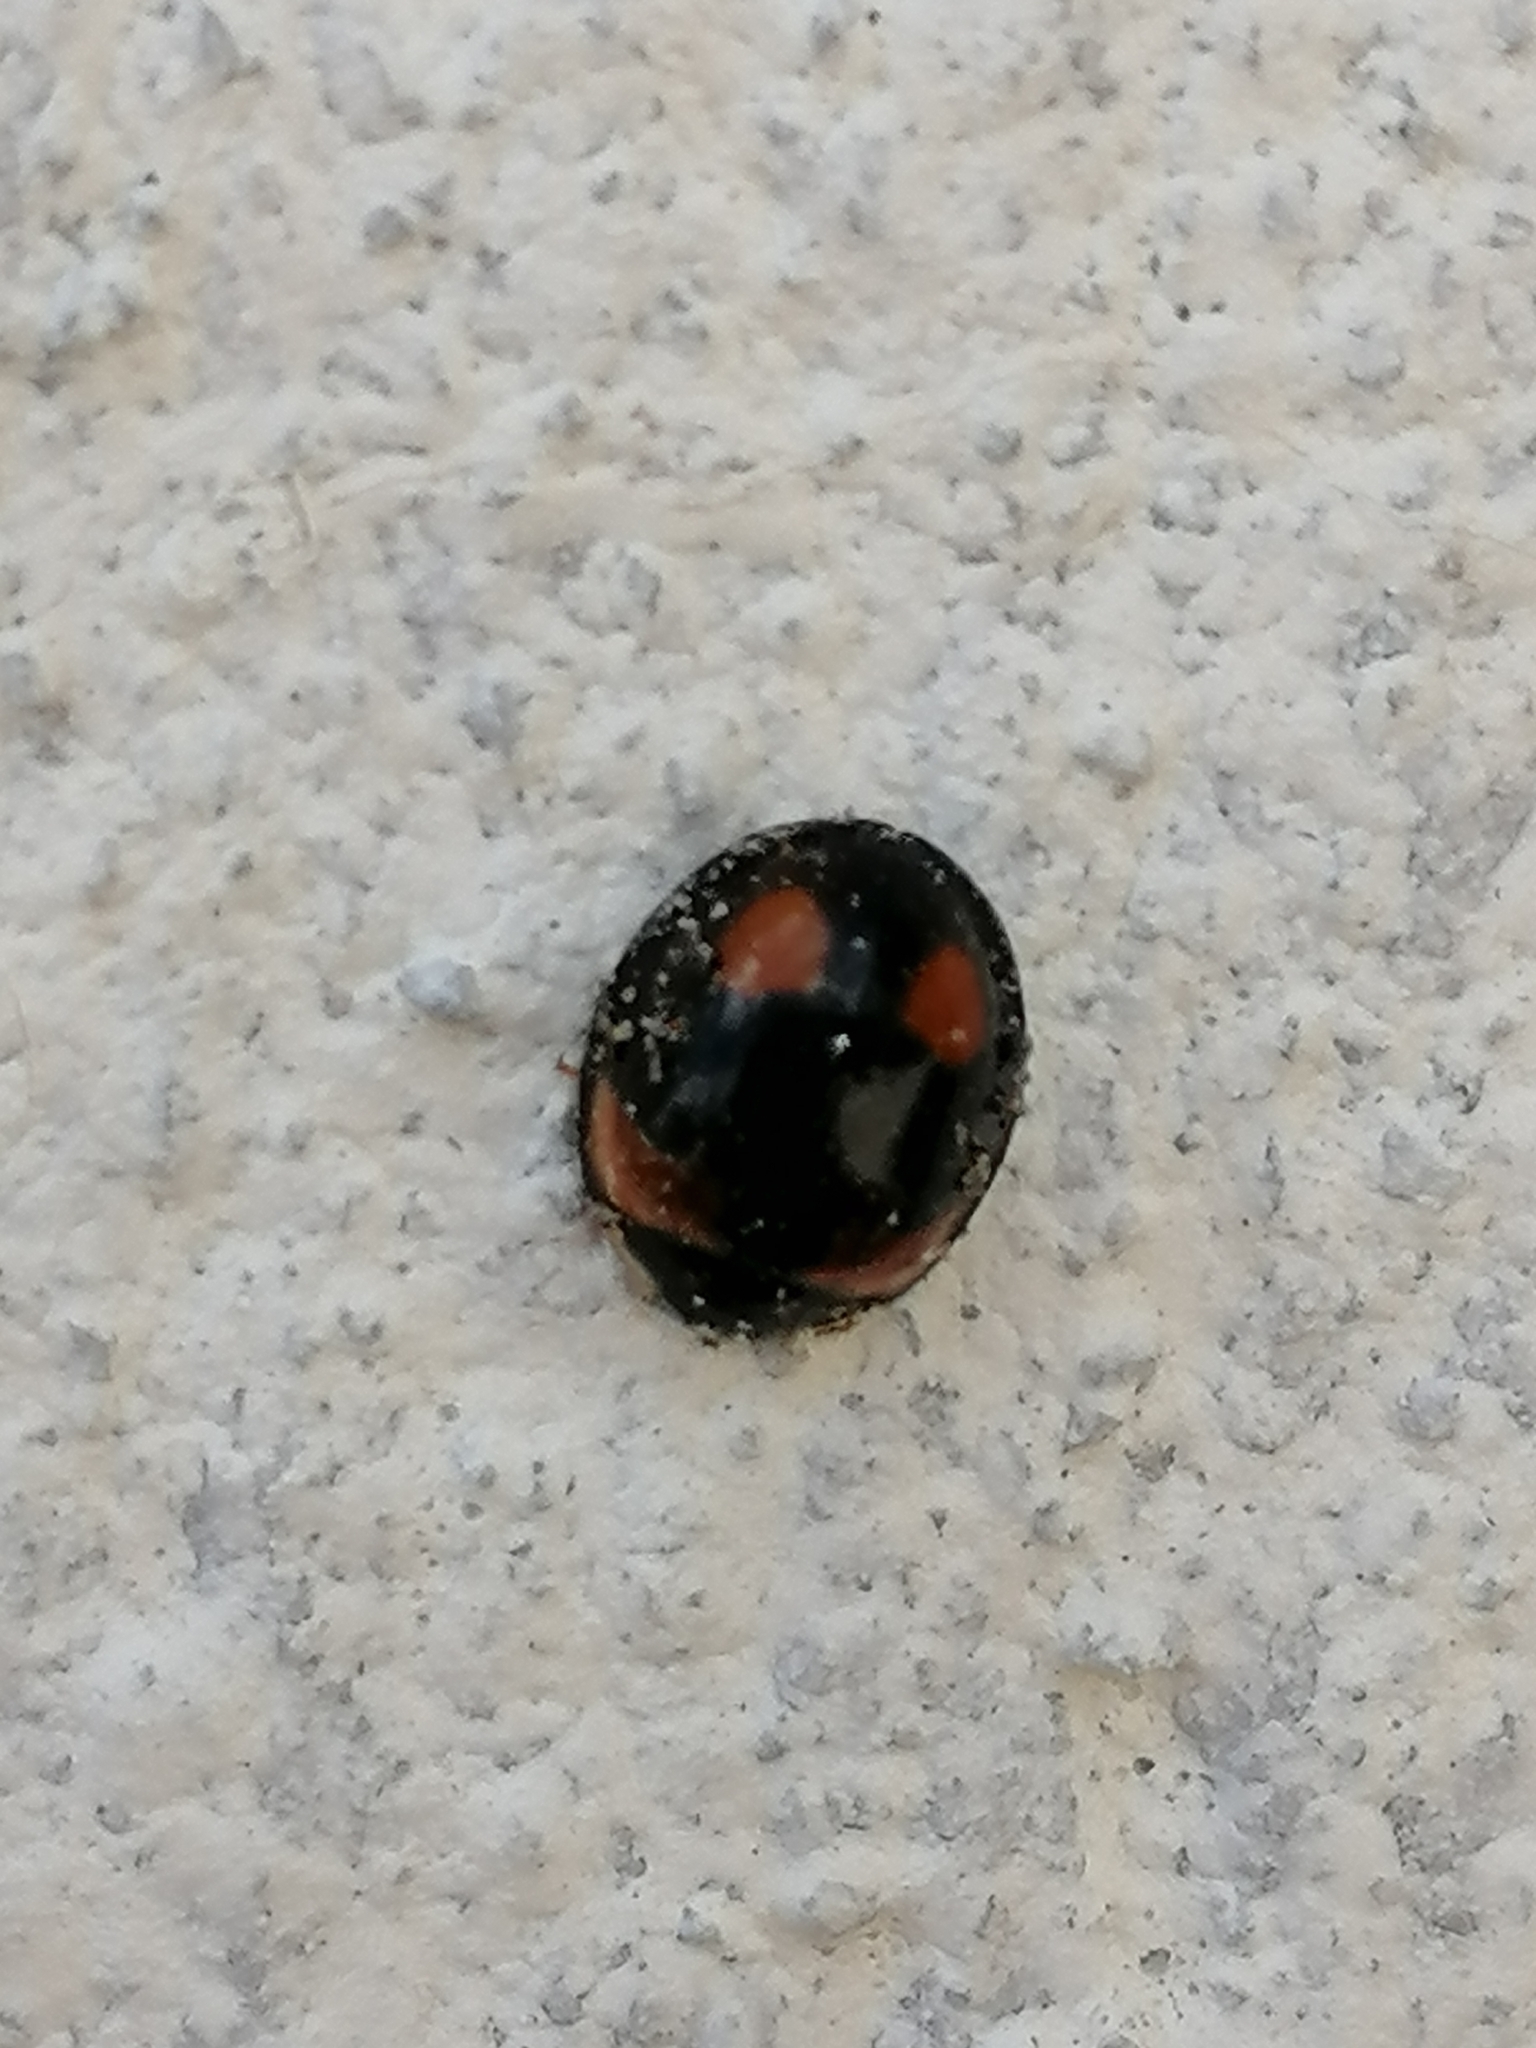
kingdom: Animalia
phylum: Arthropoda
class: Insecta
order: Coleoptera
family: Coccinellidae
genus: Cheilomenes
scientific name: Cheilomenes sexmaculata
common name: Ladybird beetle
